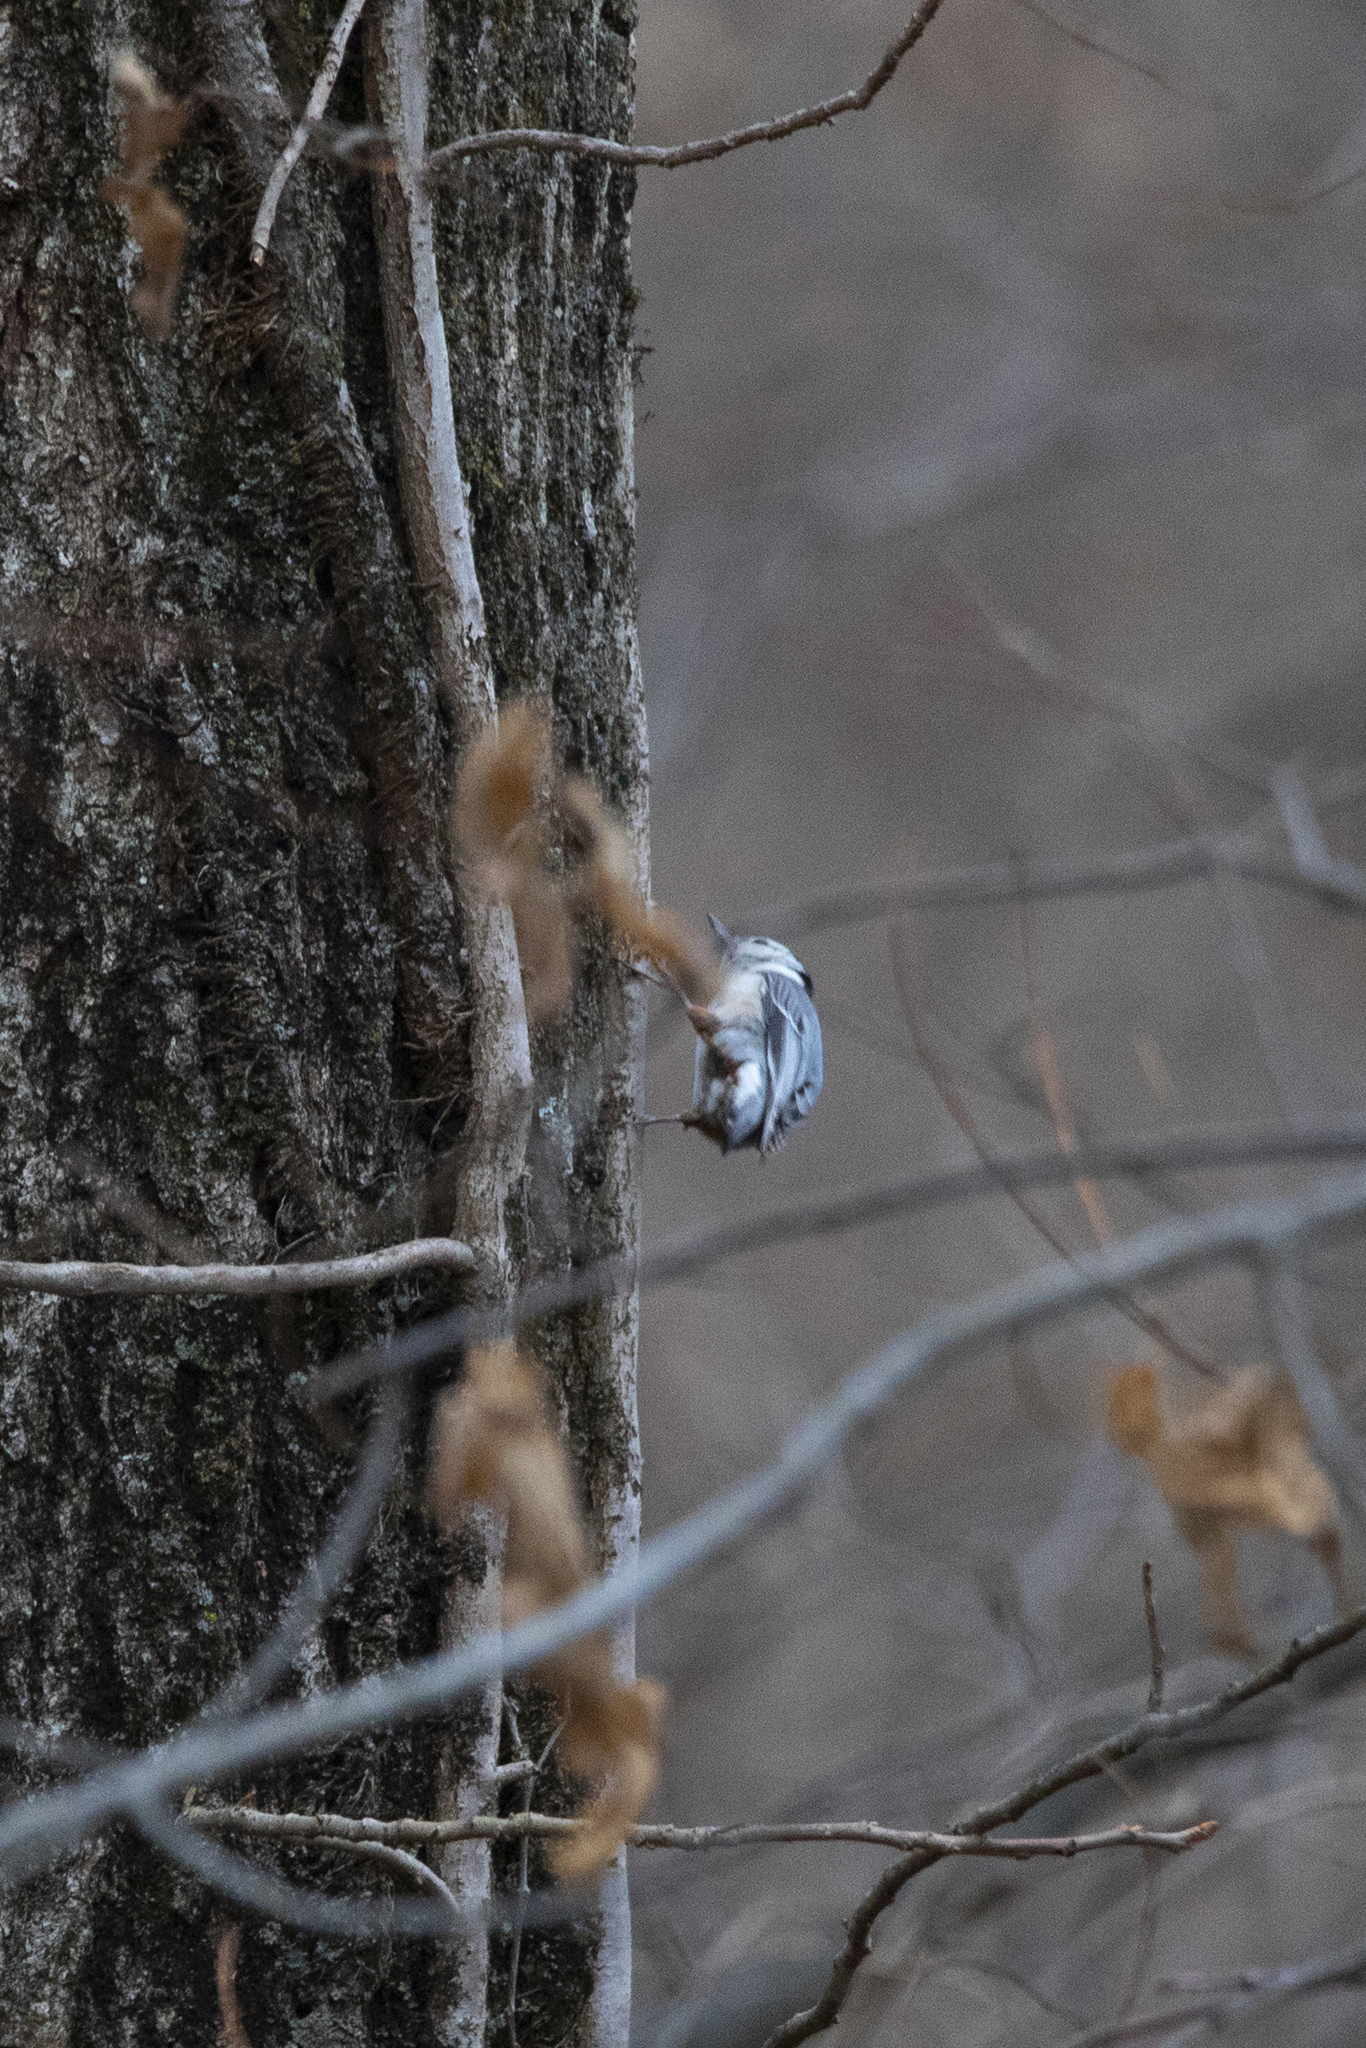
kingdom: Animalia
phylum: Chordata
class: Aves
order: Passeriformes
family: Sittidae
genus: Sitta
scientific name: Sitta carolinensis
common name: White-breasted nuthatch
